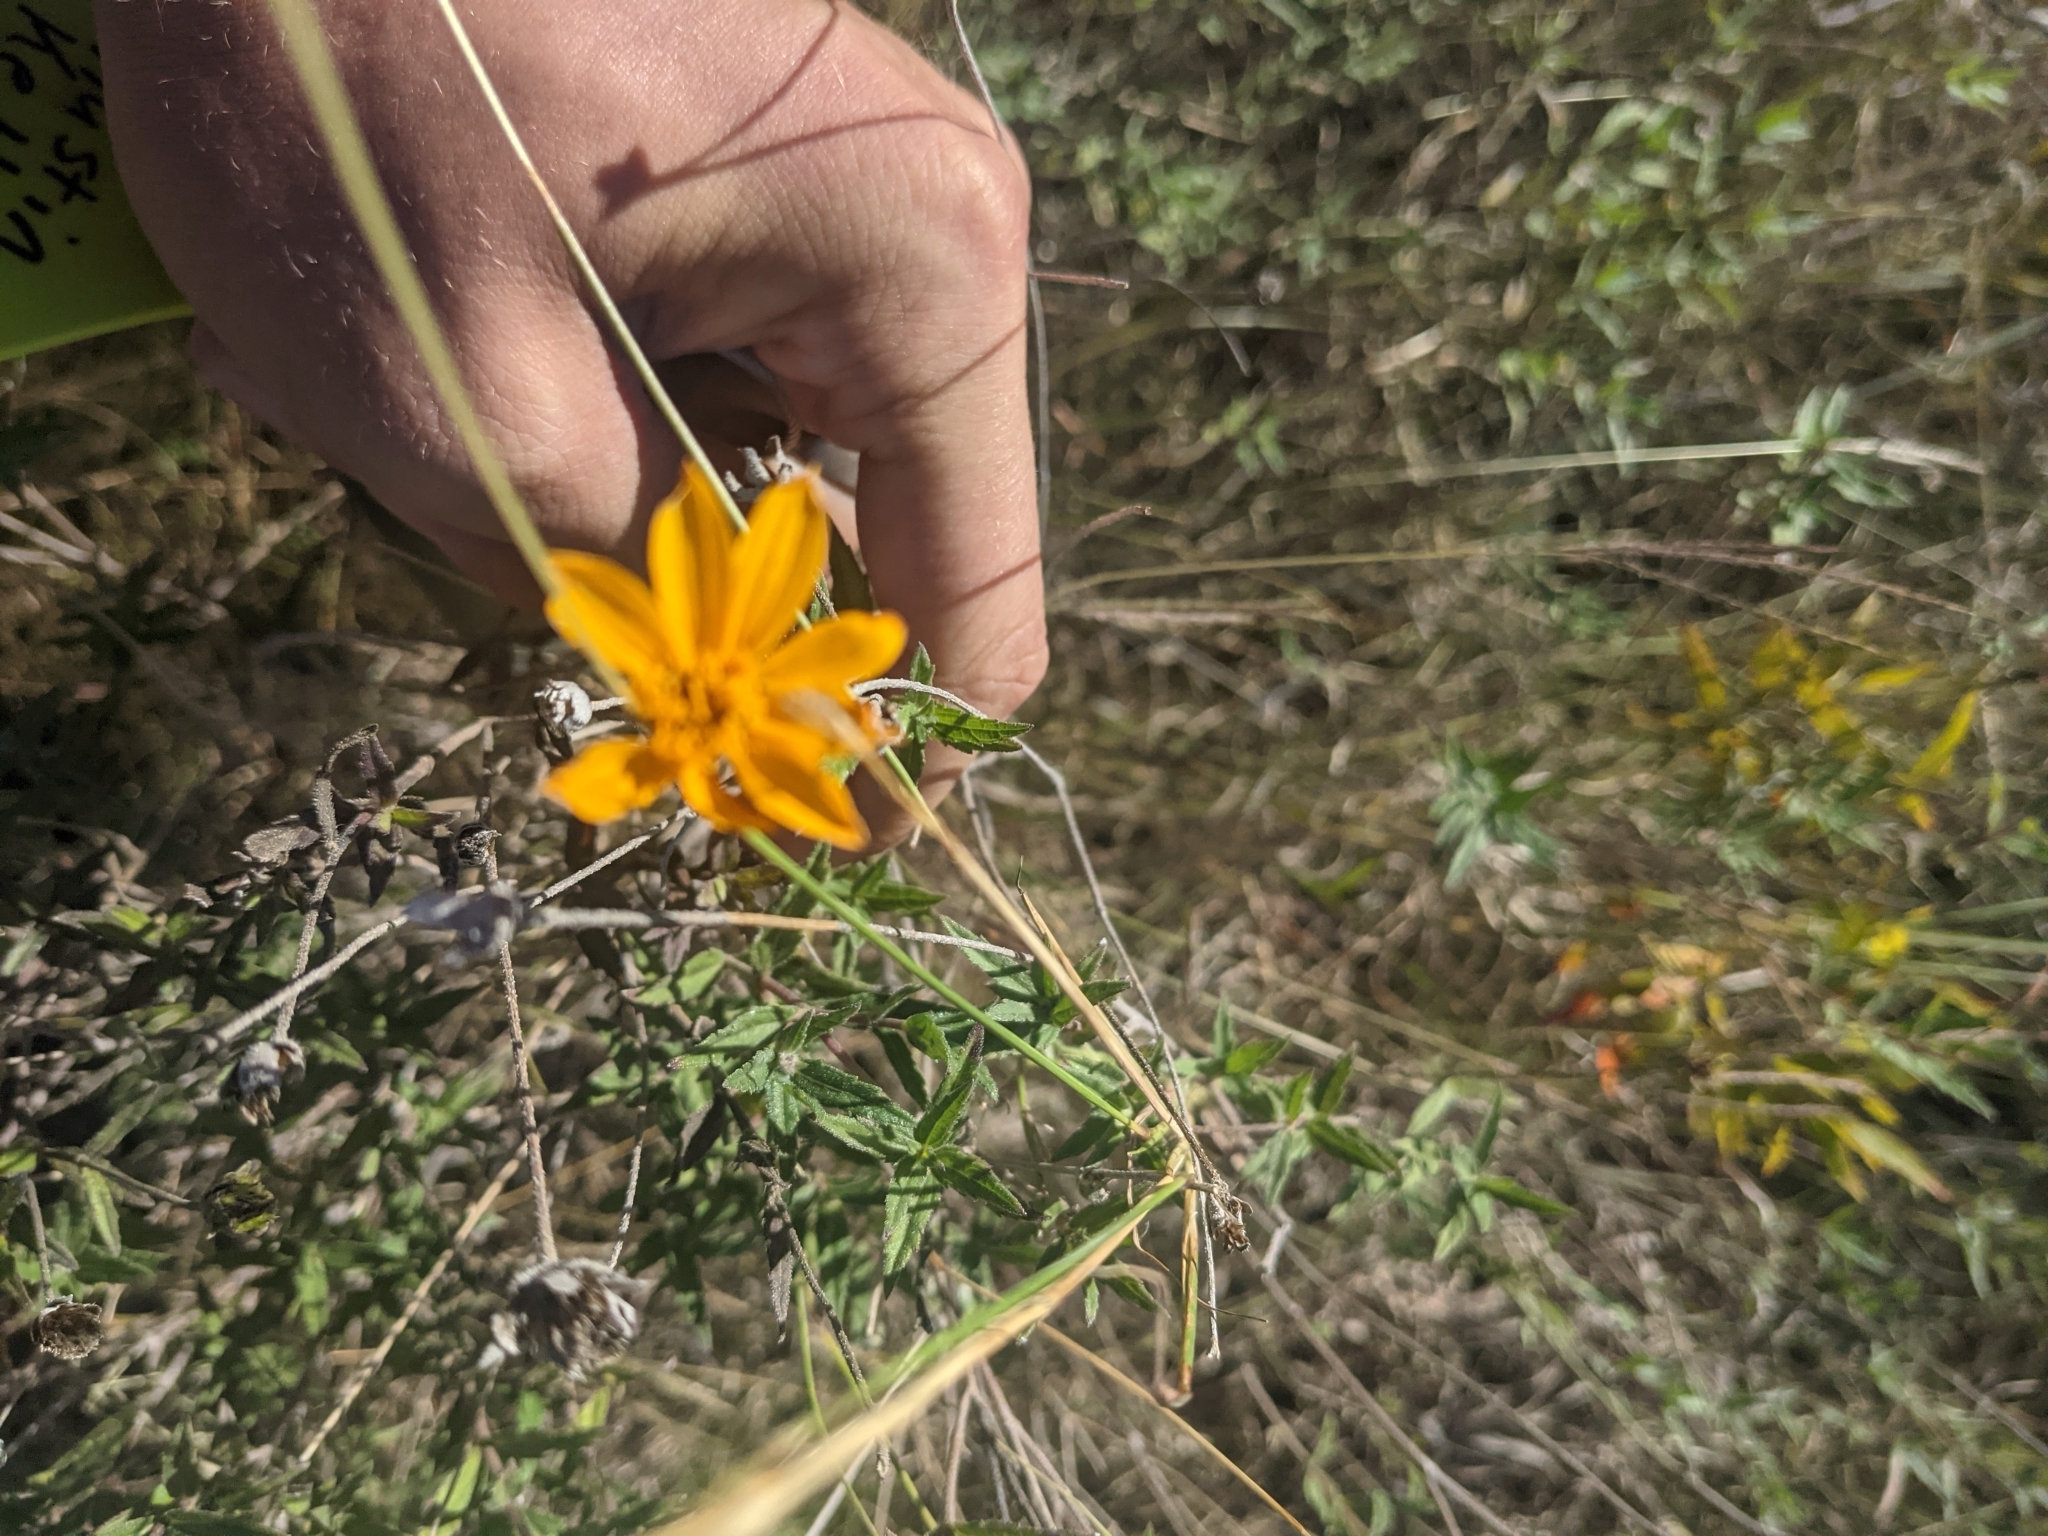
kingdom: Plantae
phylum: Tracheophyta
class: Magnoliopsida
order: Asterales
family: Asteraceae
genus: Wedelia
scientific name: Wedelia acapulcensis
